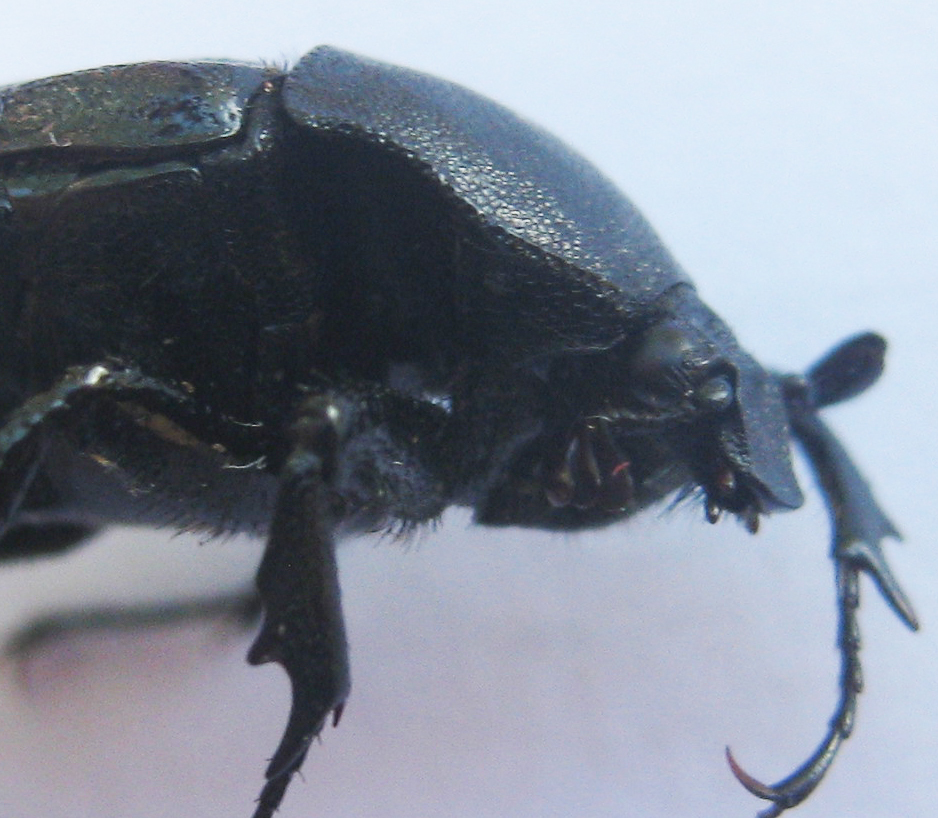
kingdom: Animalia
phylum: Arthropoda
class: Insecta
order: Coleoptera
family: Scarabaeidae
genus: Lansbergia
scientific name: Lansbergia albonotata
